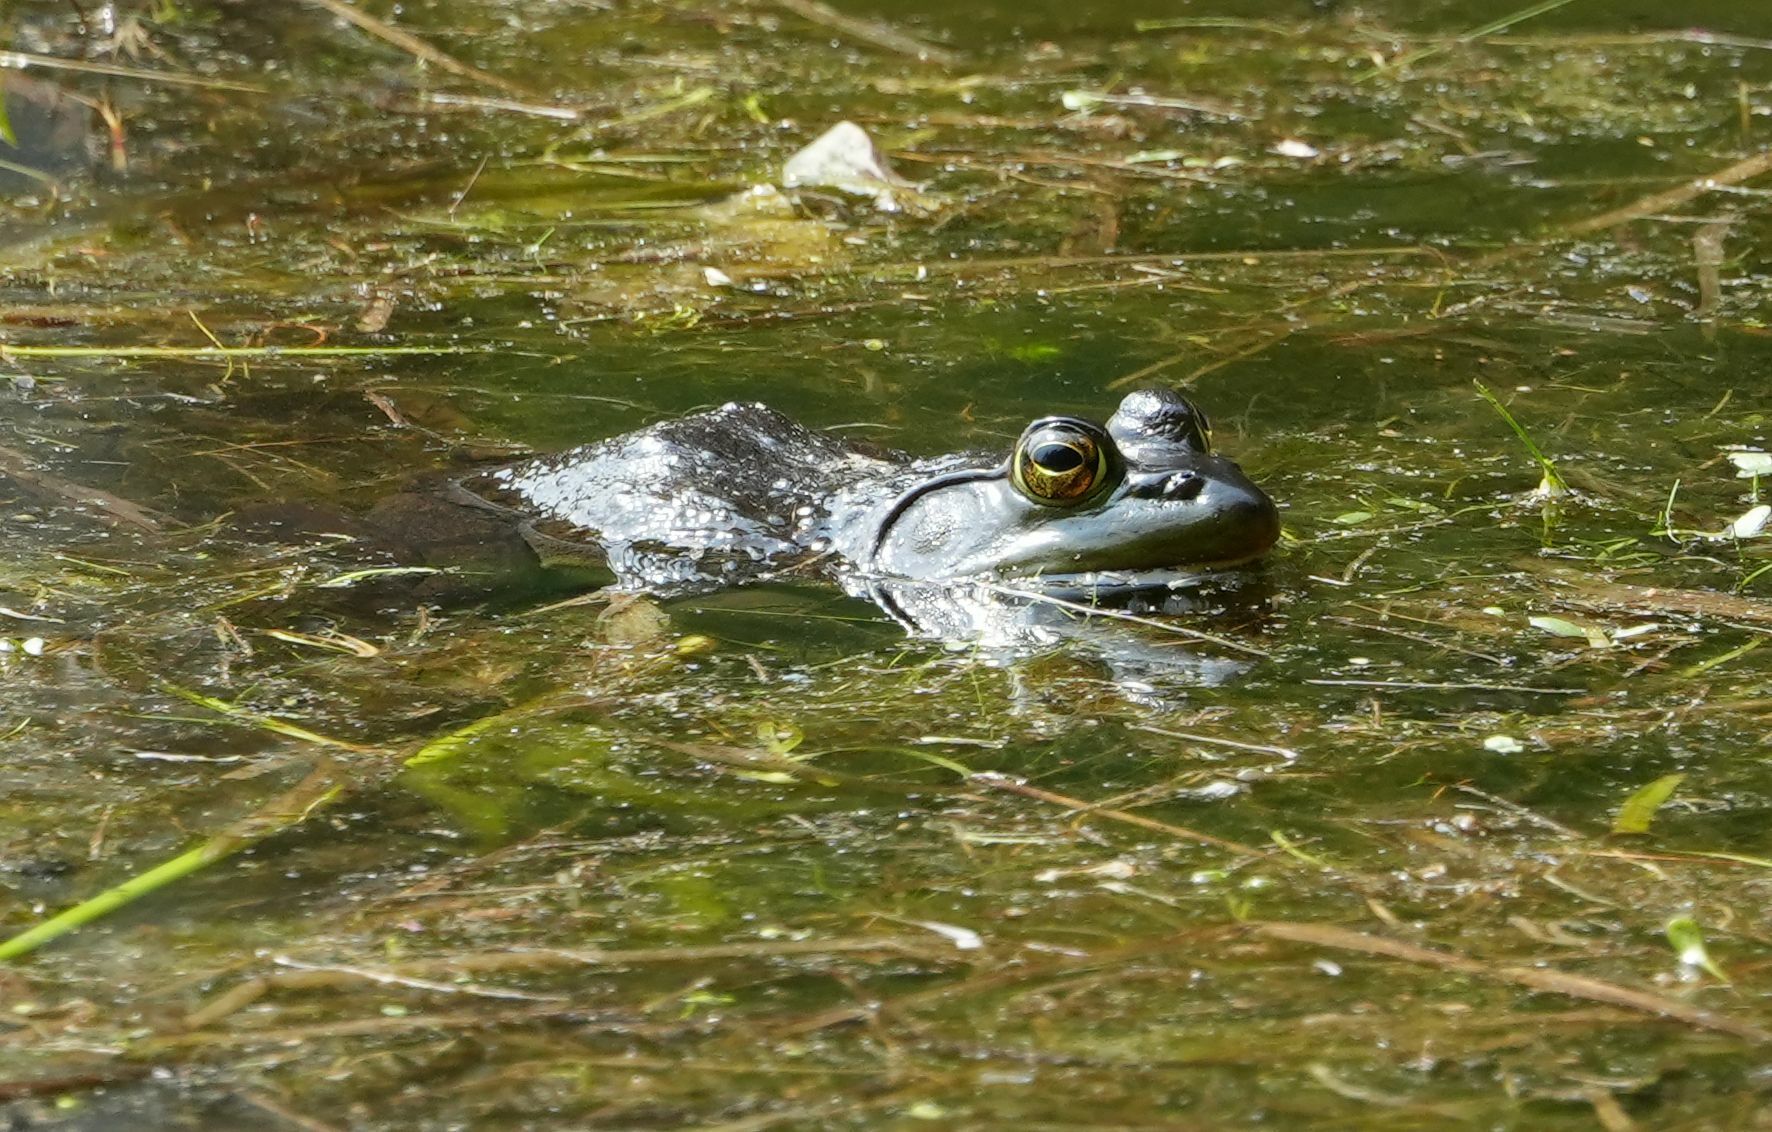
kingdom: Animalia
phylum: Chordata
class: Amphibia
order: Anura
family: Ranidae
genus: Lithobates
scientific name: Lithobates catesbeianus
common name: American bullfrog
